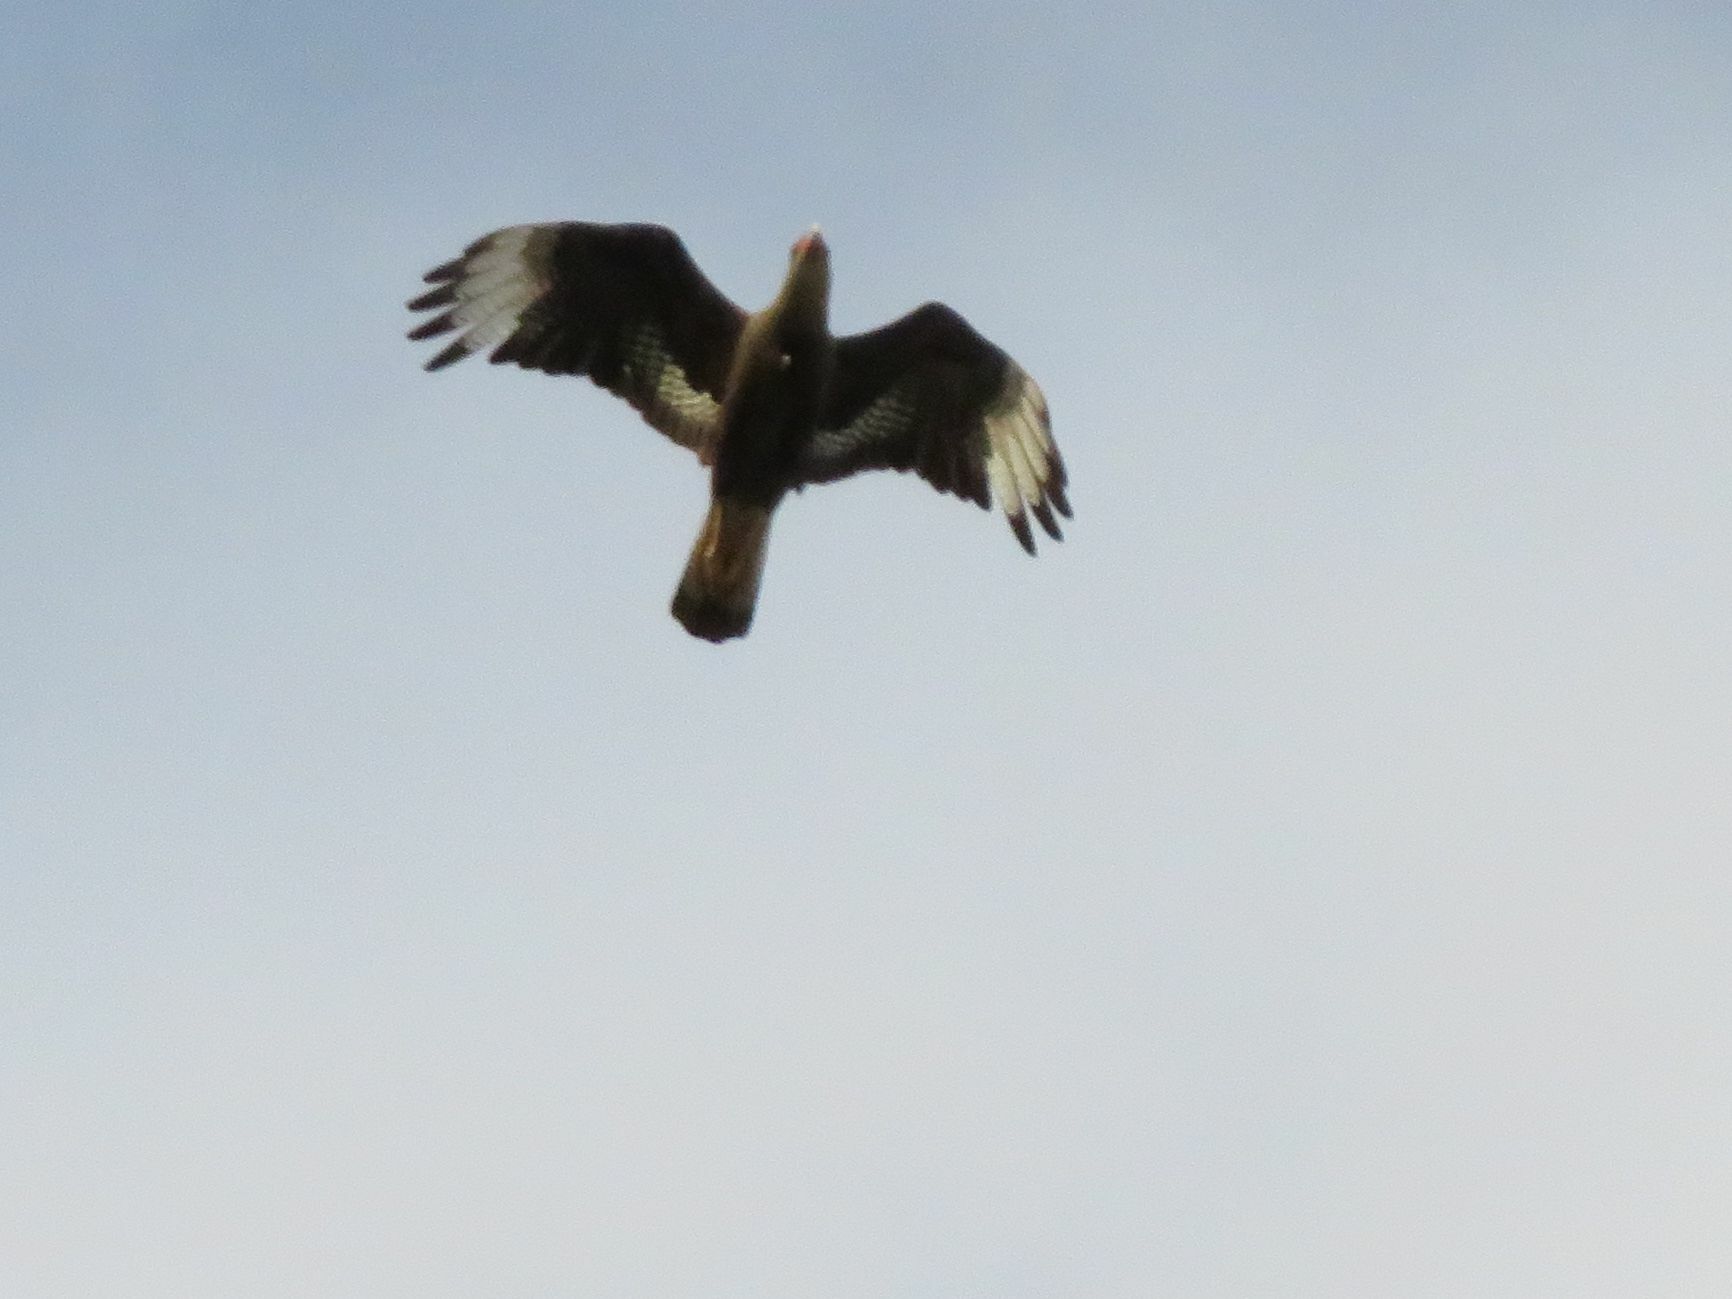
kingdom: Animalia
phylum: Chordata
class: Aves
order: Falconiformes
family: Falconidae
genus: Caracara
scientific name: Caracara plancus
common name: Southern caracara
